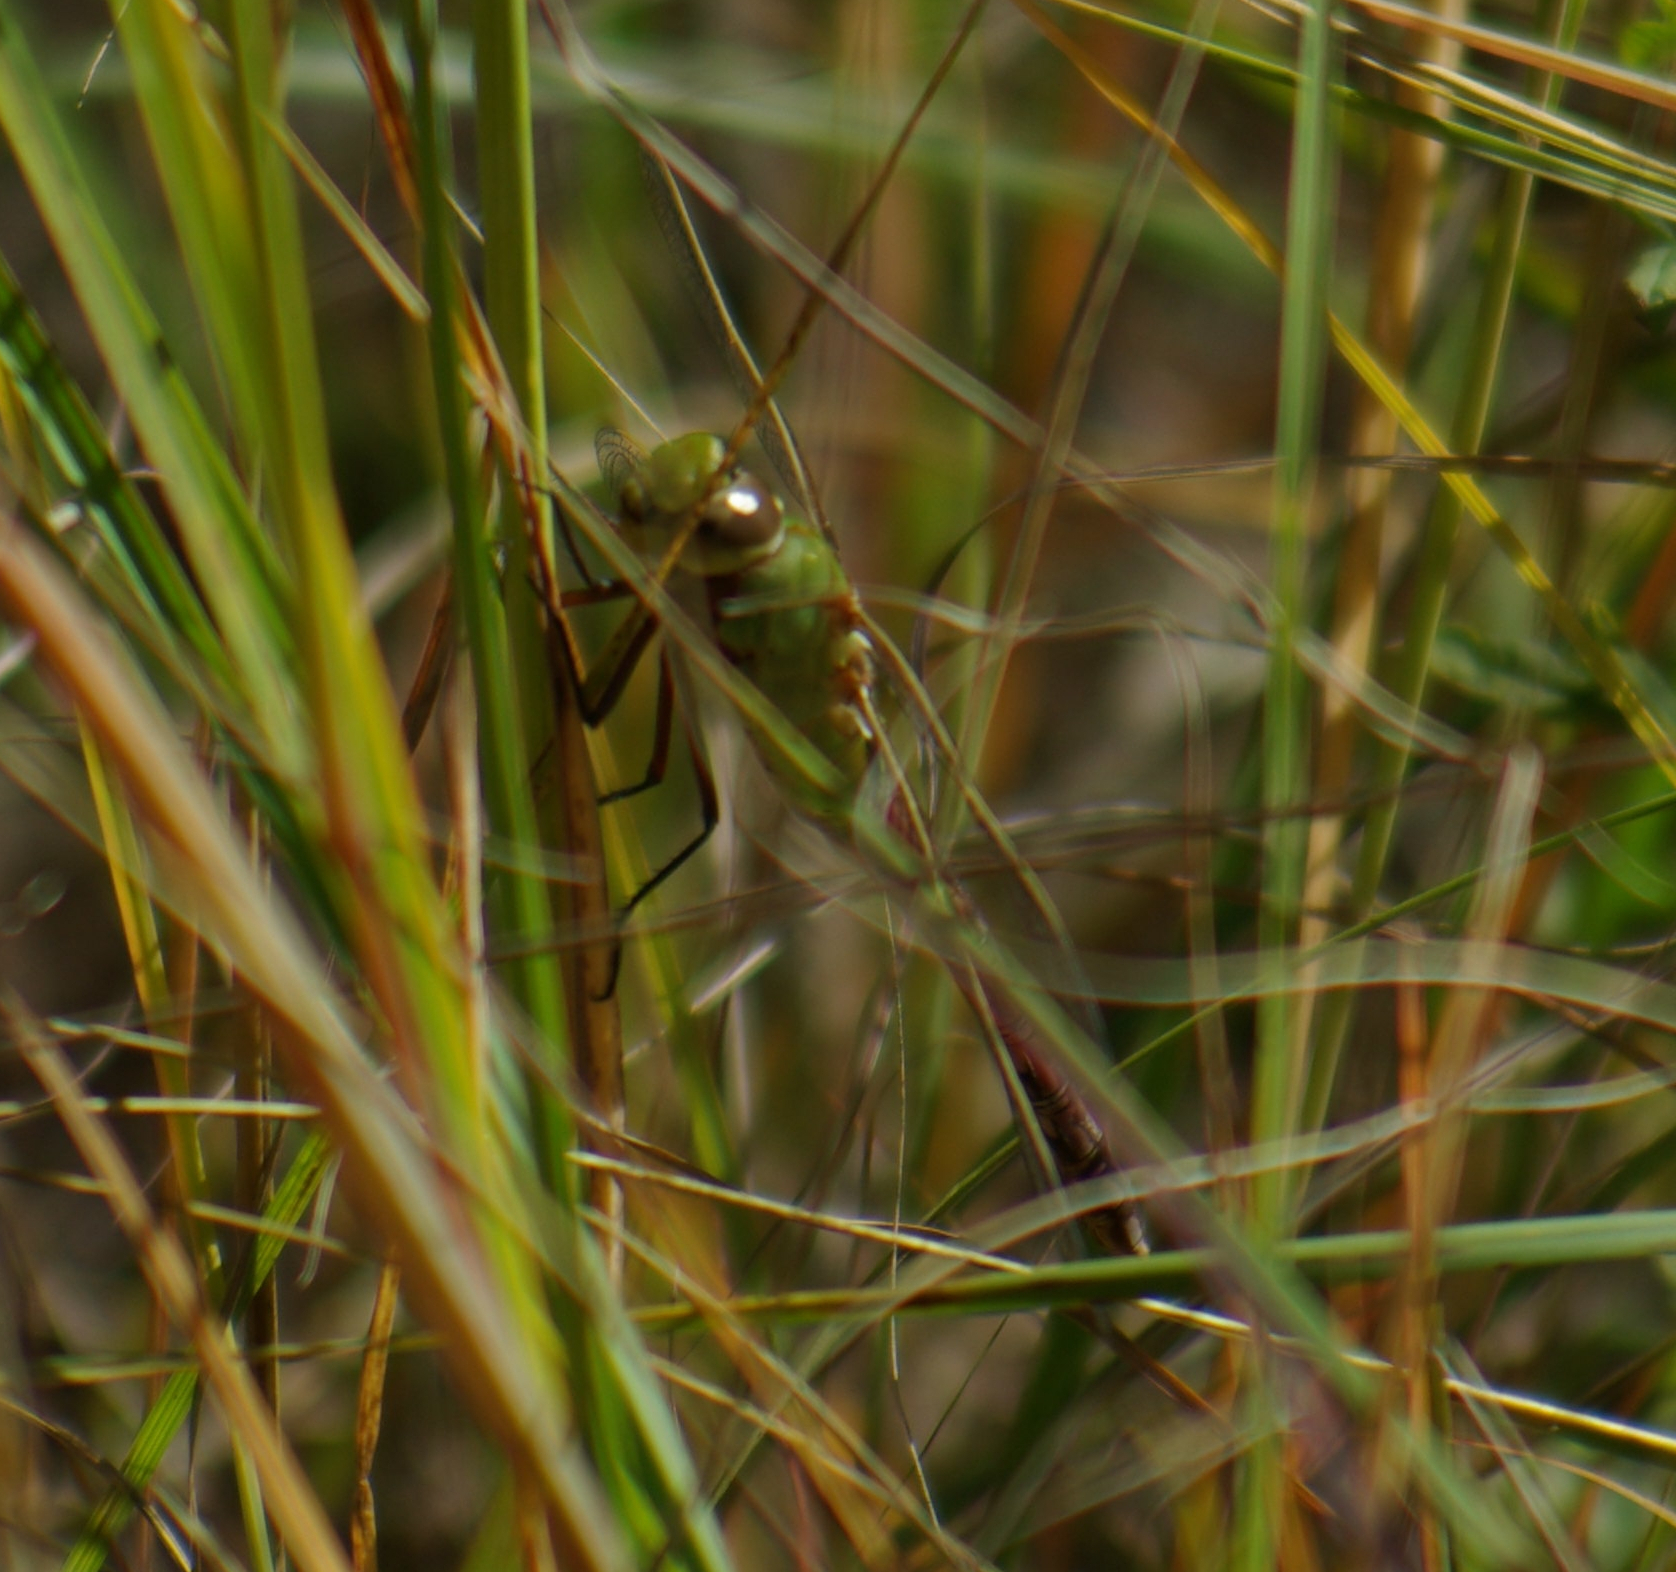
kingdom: Animalia
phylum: Arthropoda
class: Insecta
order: Odonata
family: Aeshnidae
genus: Anax
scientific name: Anax junius
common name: Common green darner
